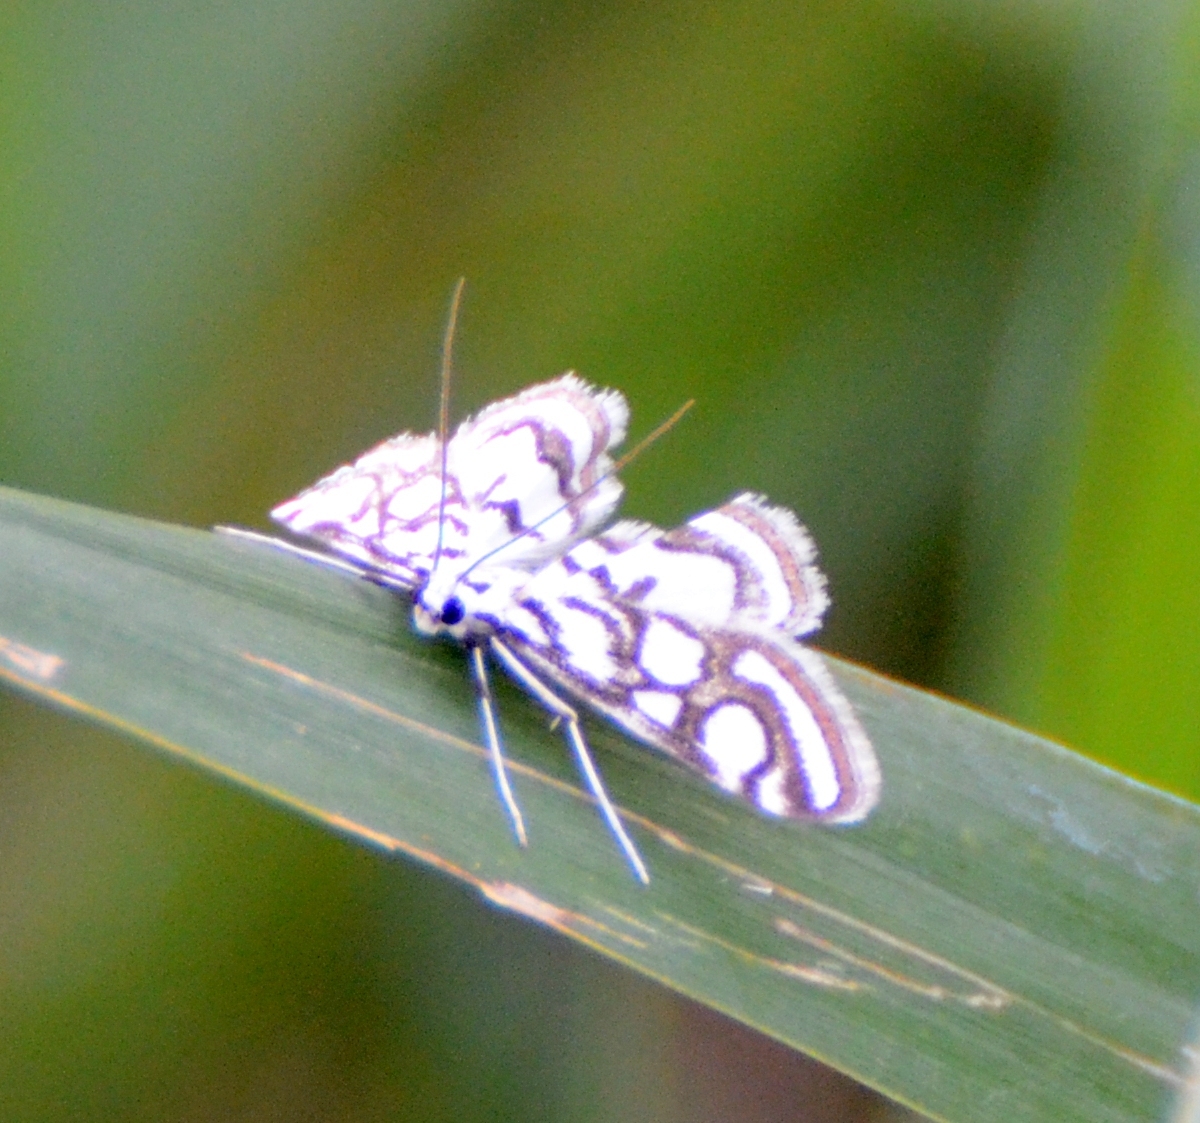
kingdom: Animalia
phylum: Arthropoda
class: Insecta
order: Lepidoptera
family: Crambidae
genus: Nymphula
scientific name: Nymphula nitidulata
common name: Beautiful china mark
